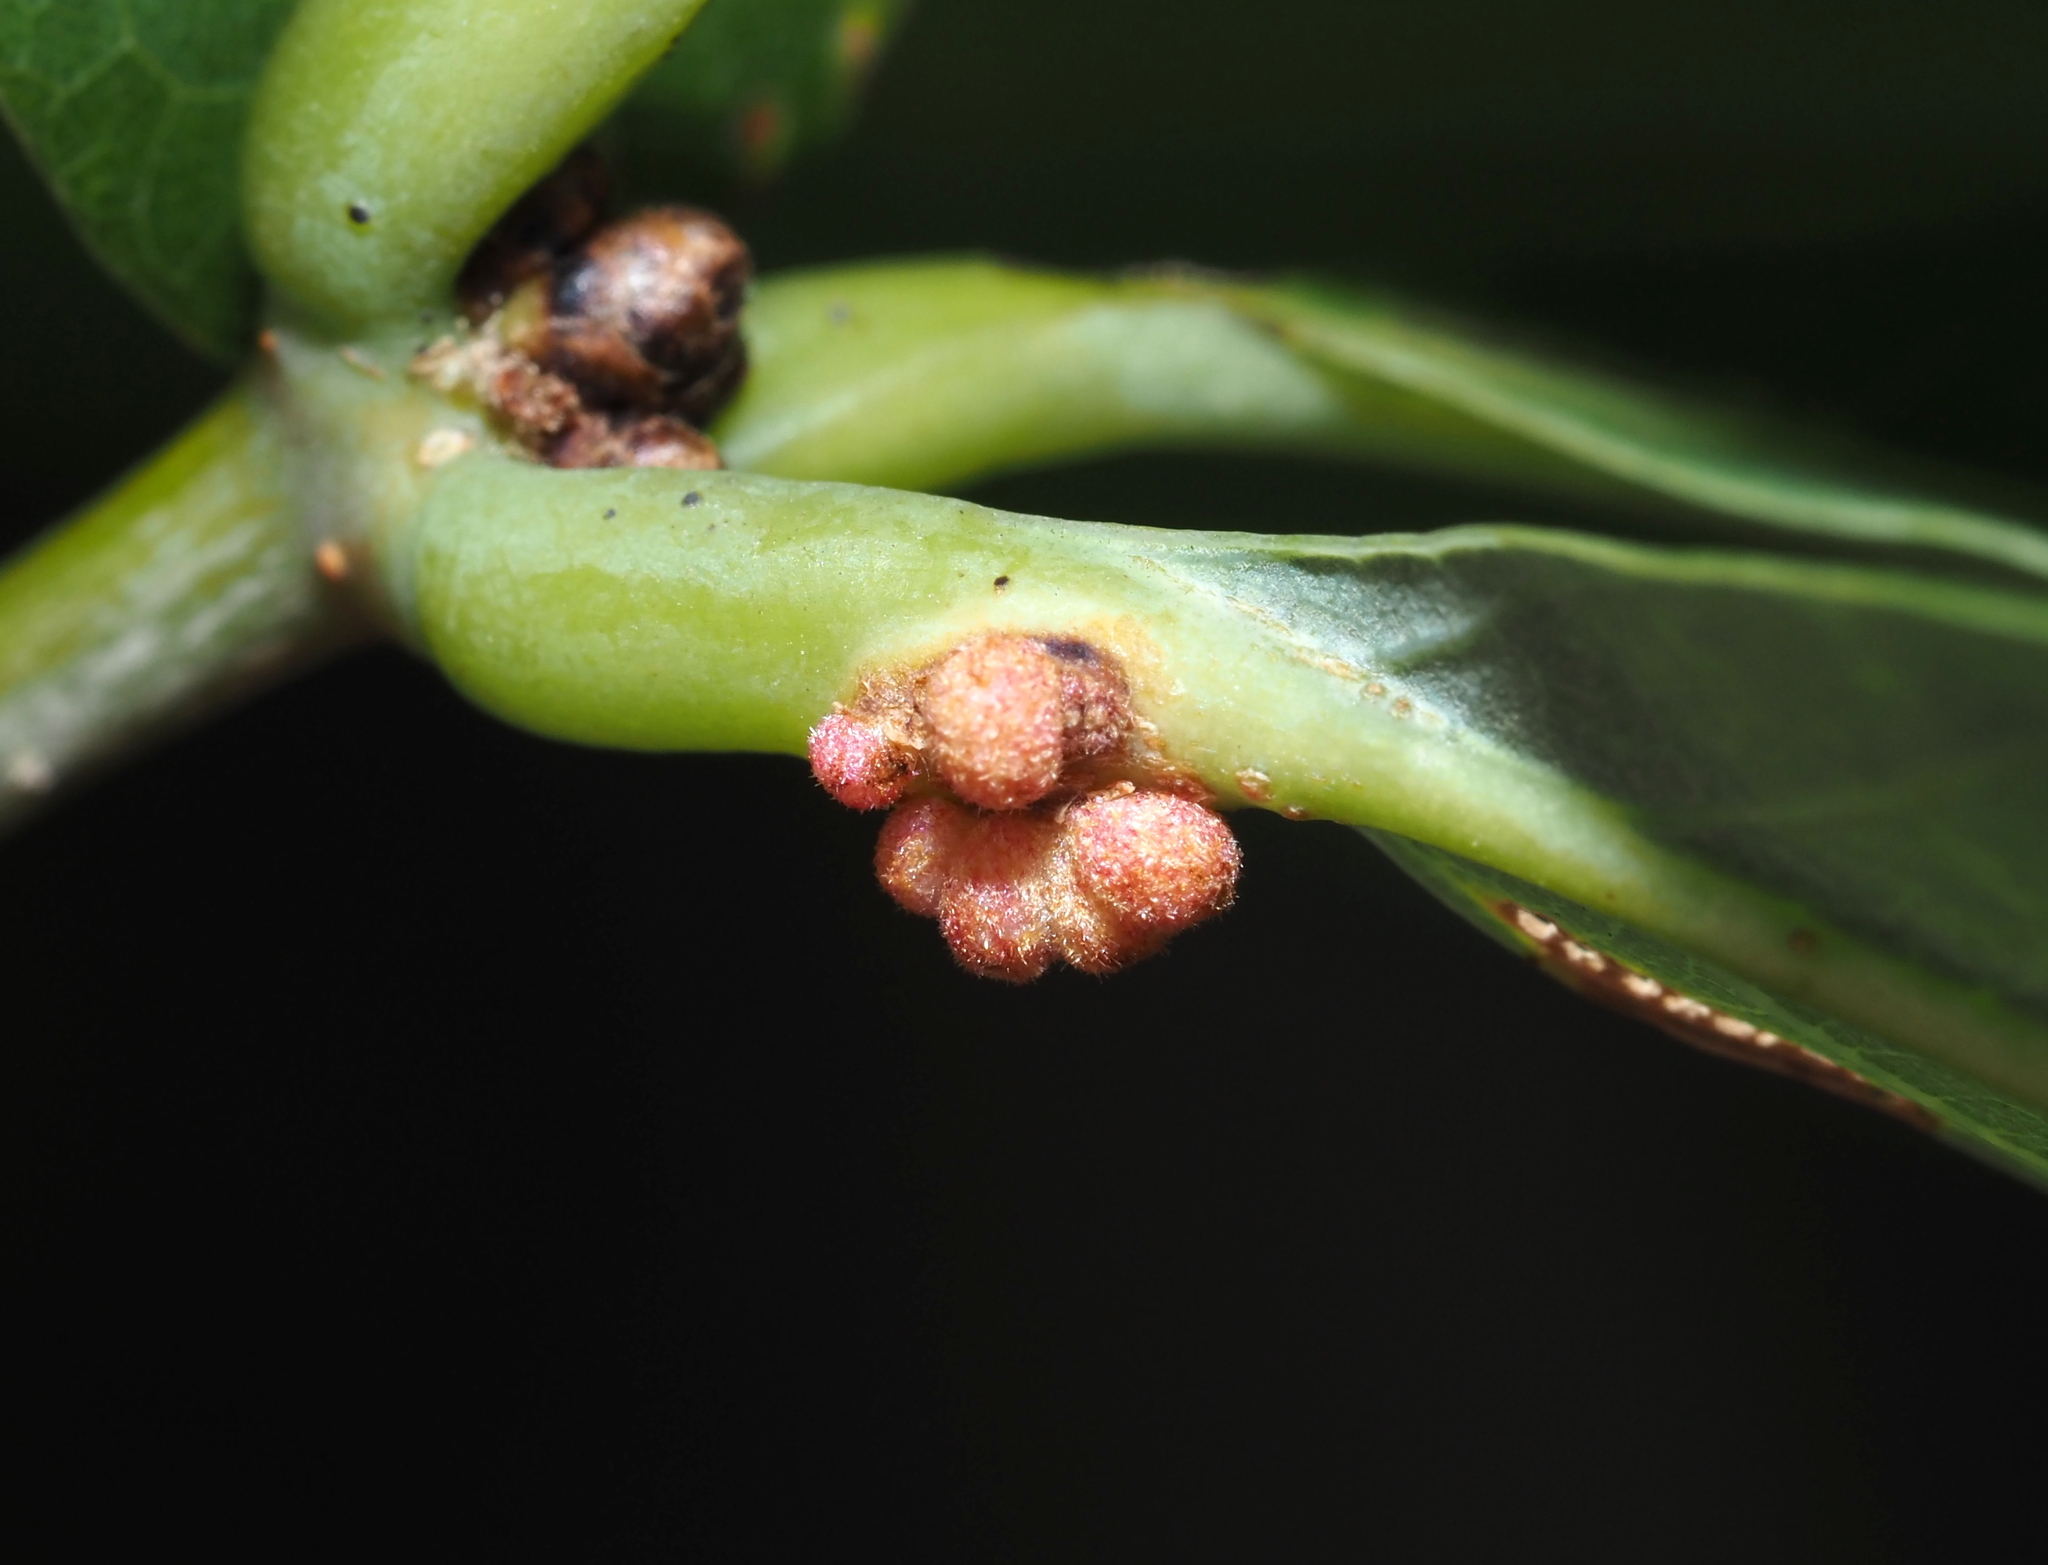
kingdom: Animalia
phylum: Arthropoda
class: Insecta
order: Hymenoptera
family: Cynipidae
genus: Andricus
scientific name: Andricus
